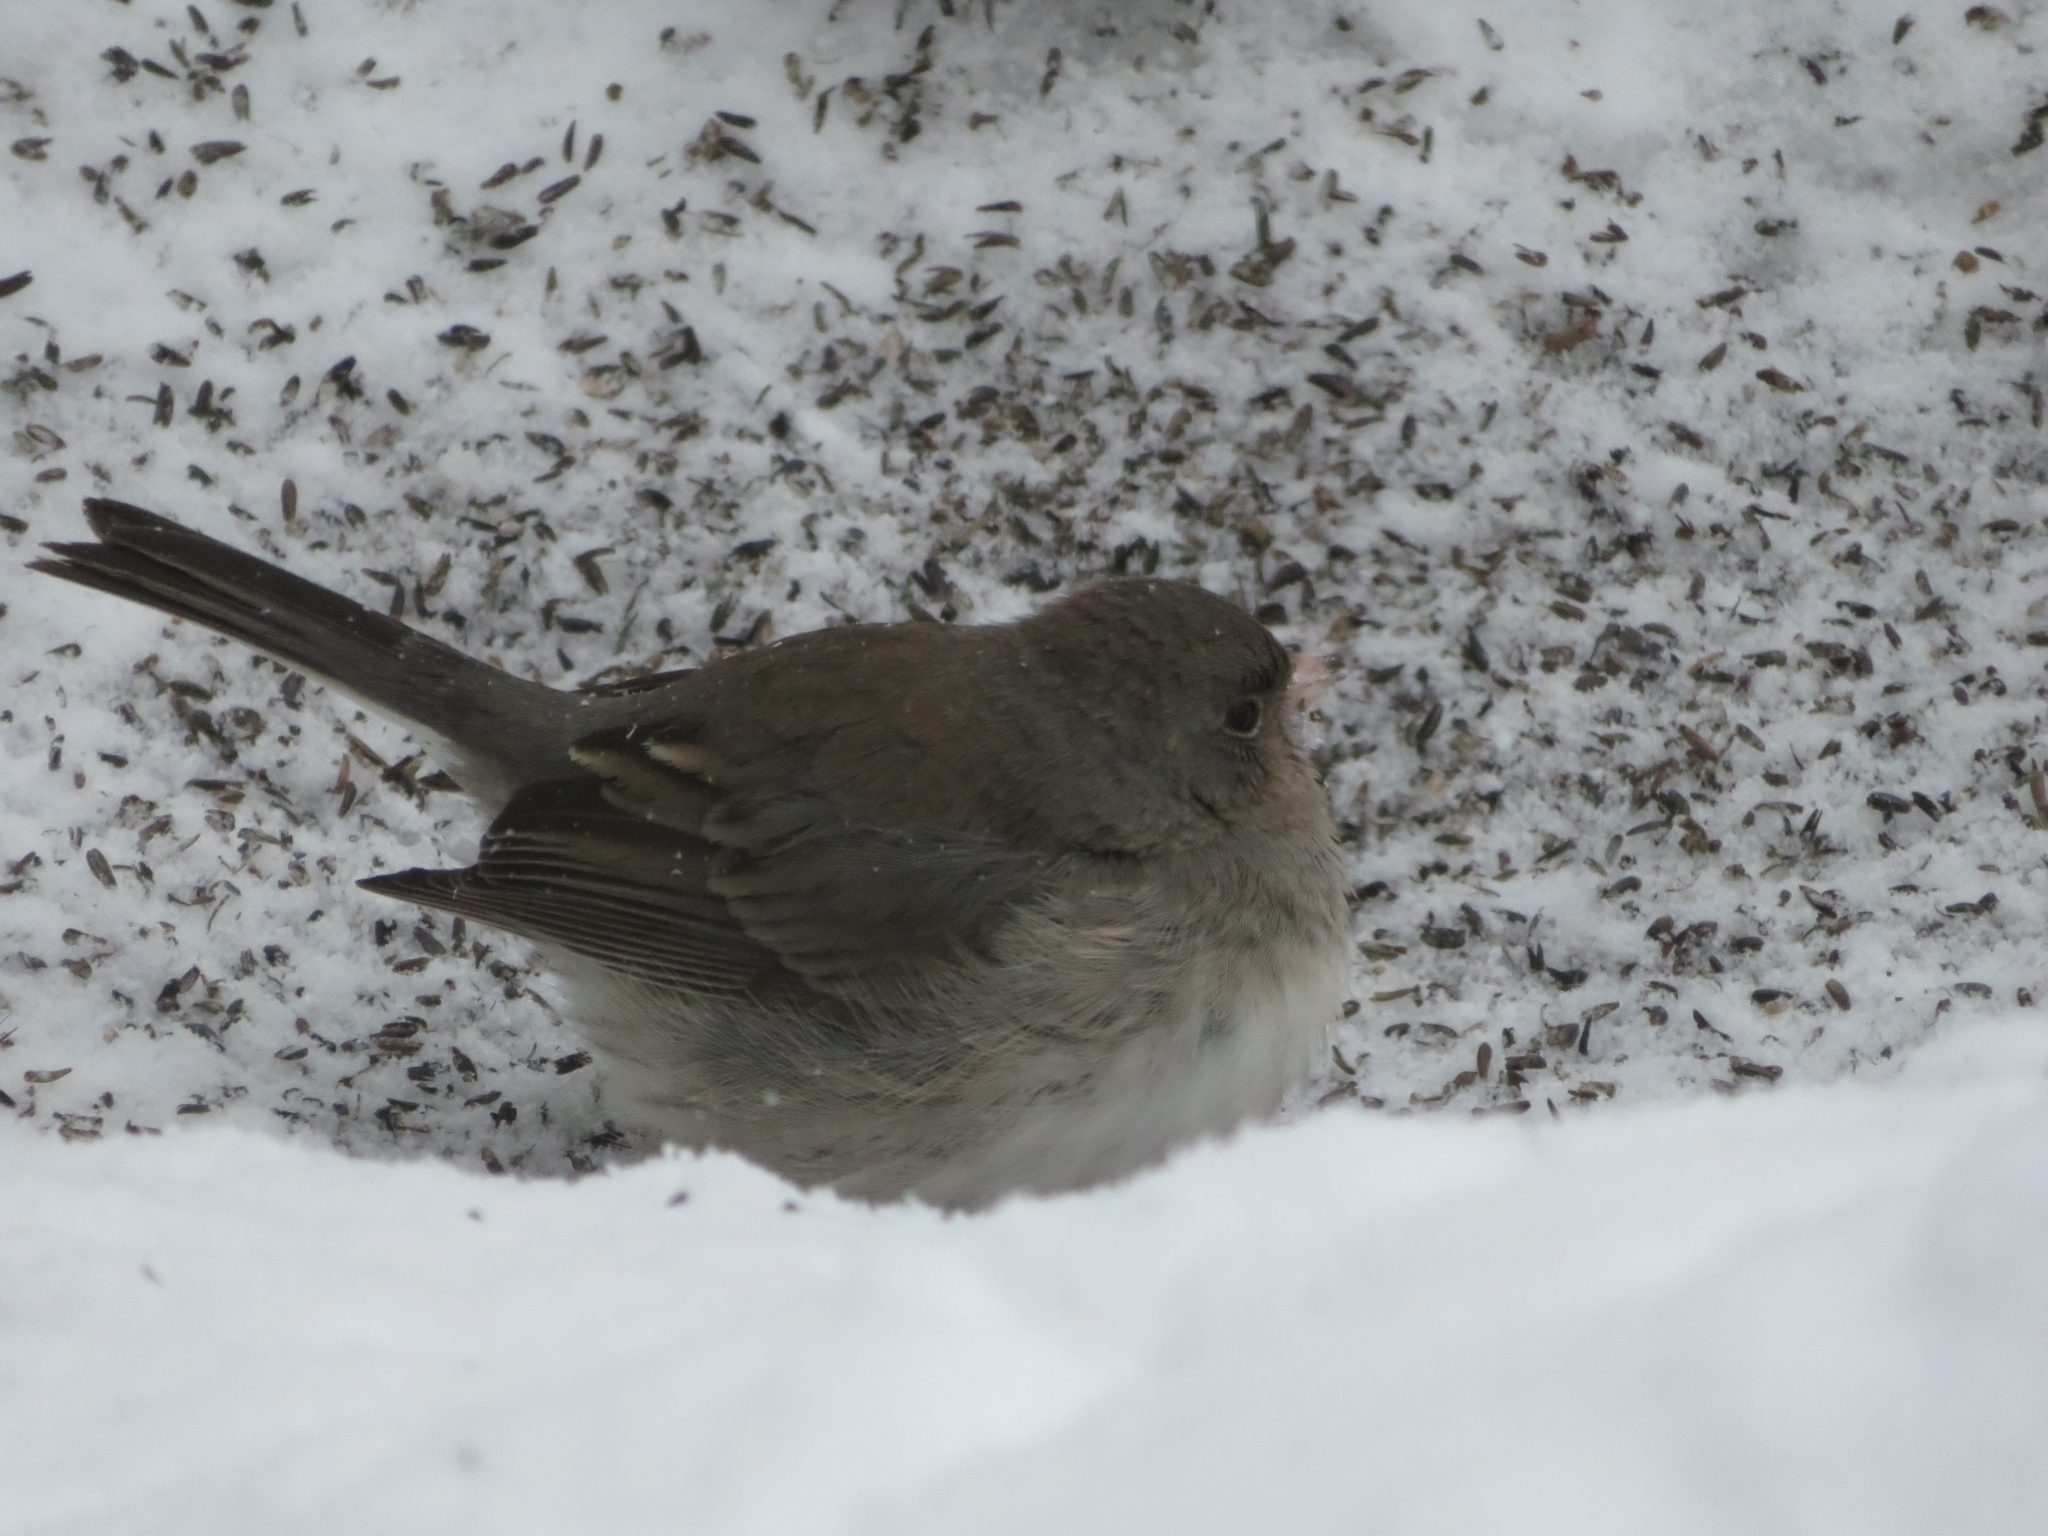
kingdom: Animalia
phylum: Chordata
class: Aves
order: Passeriformes
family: Passerellidae
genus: Junco
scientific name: Junco hyemalis
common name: Dark-eyed junco
